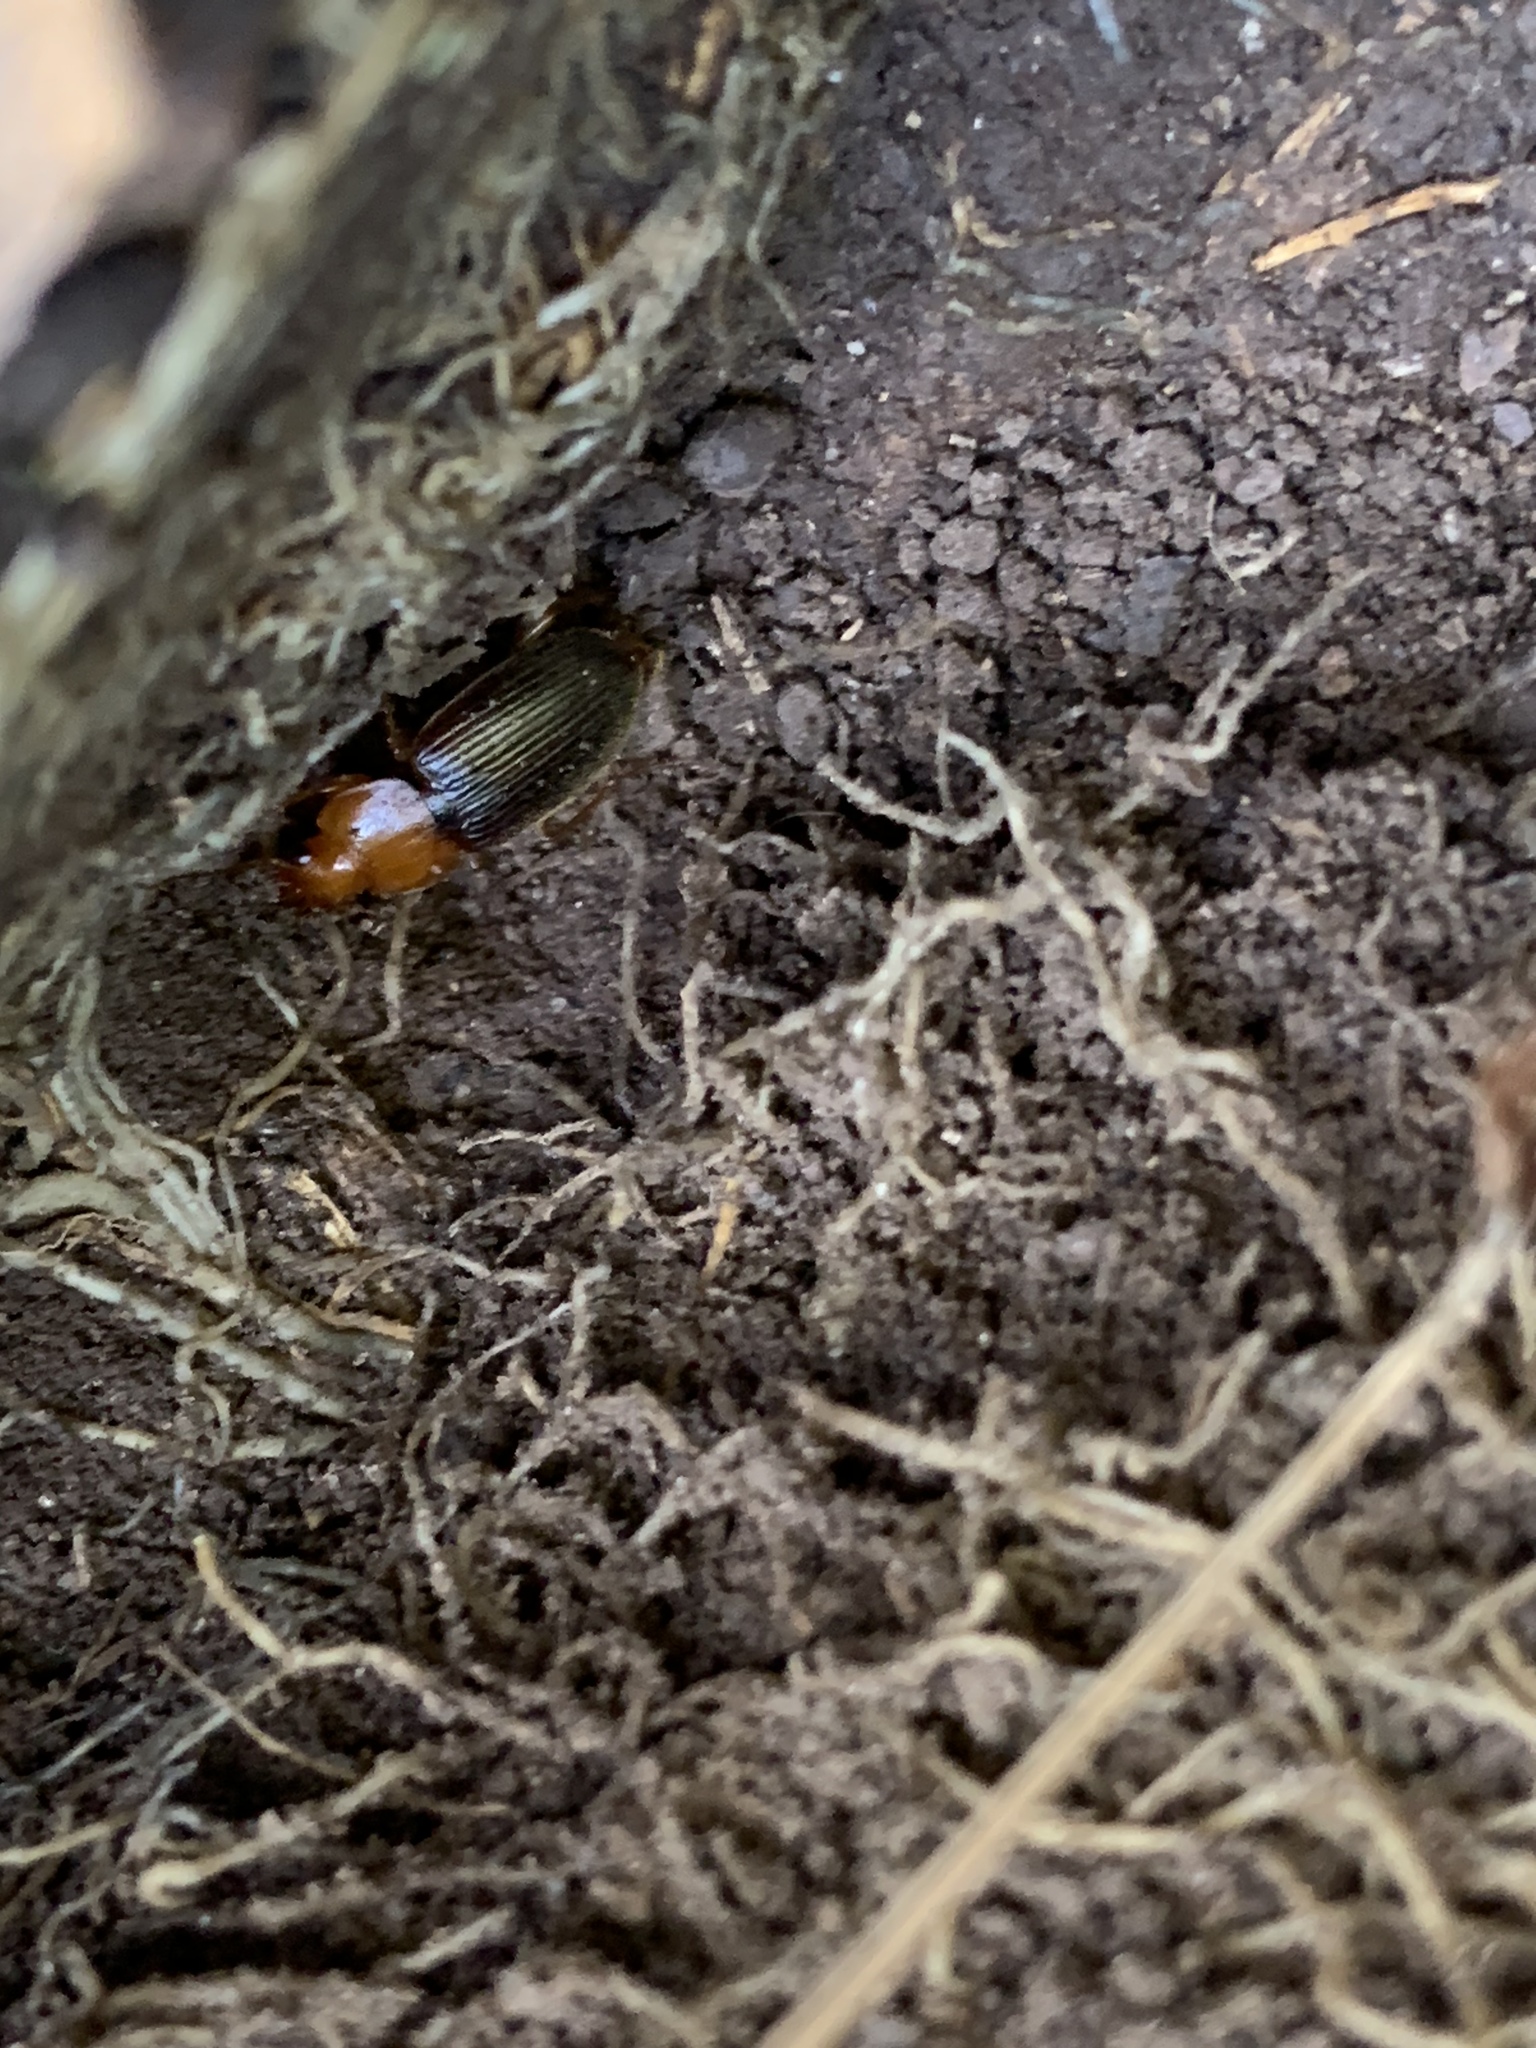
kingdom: Animalia
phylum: Arthropoda
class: Insecta
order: Coleoptera
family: Carabidae
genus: Amphasia
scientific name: Amphasia interstitialis
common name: Red-headed ground beetle
